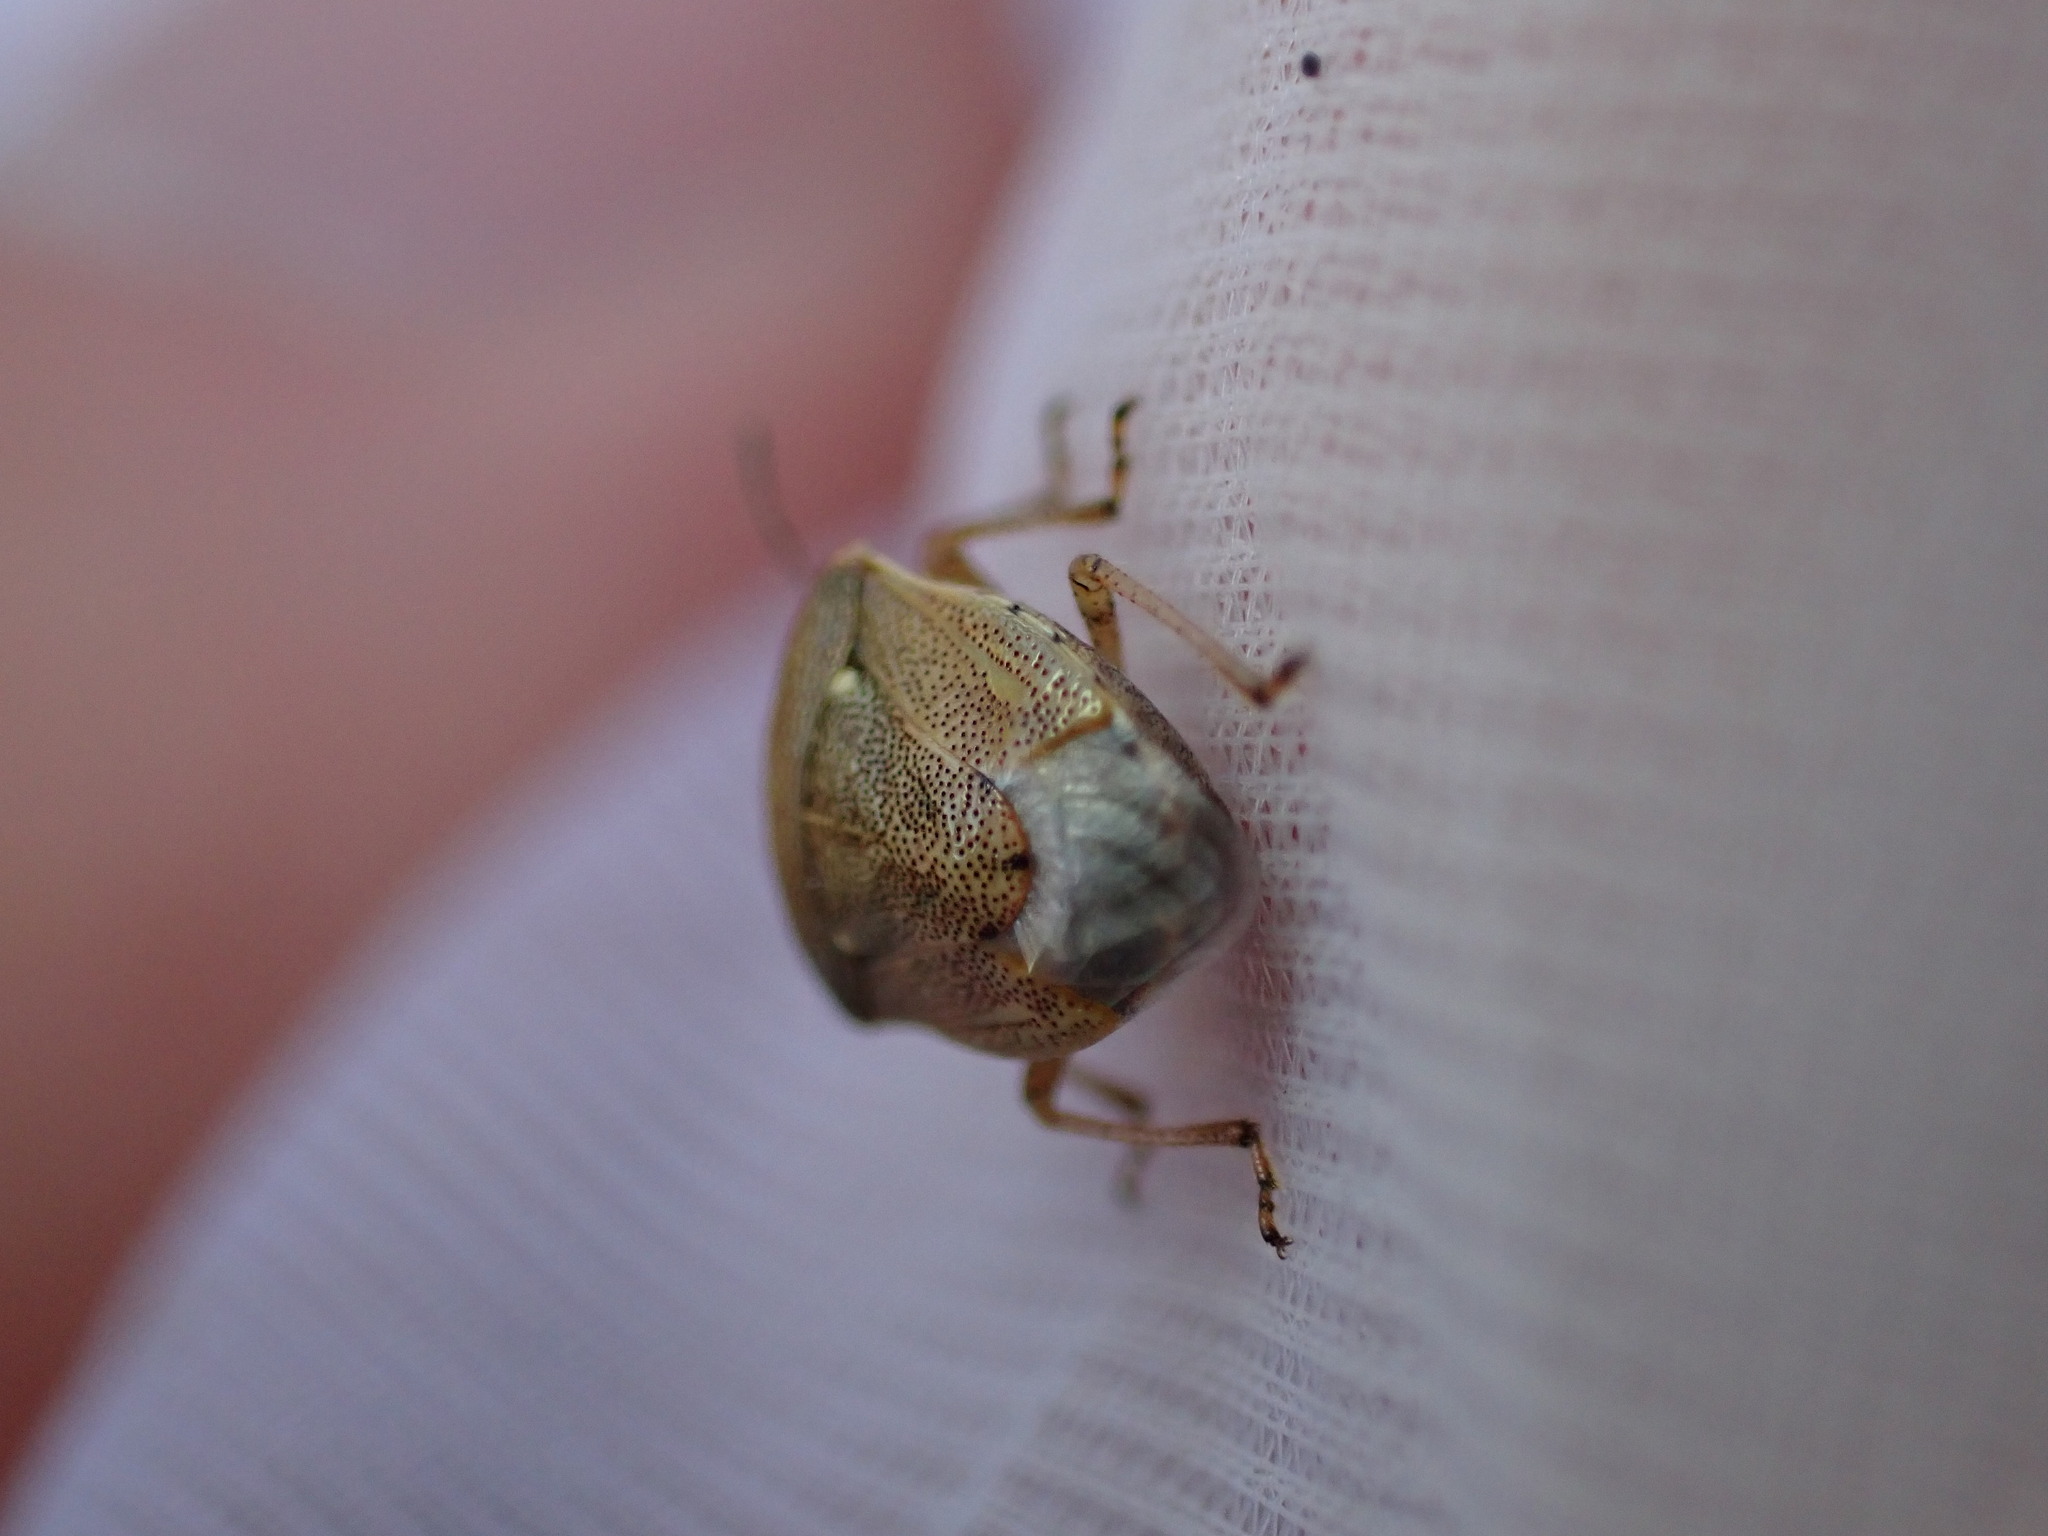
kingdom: Animalia
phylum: Arthropoda
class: Insecta
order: Hemiptera
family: Pentatomidae
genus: Eysarcoris
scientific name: Eysarcoris ventralis
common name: White-spotted stink bug
